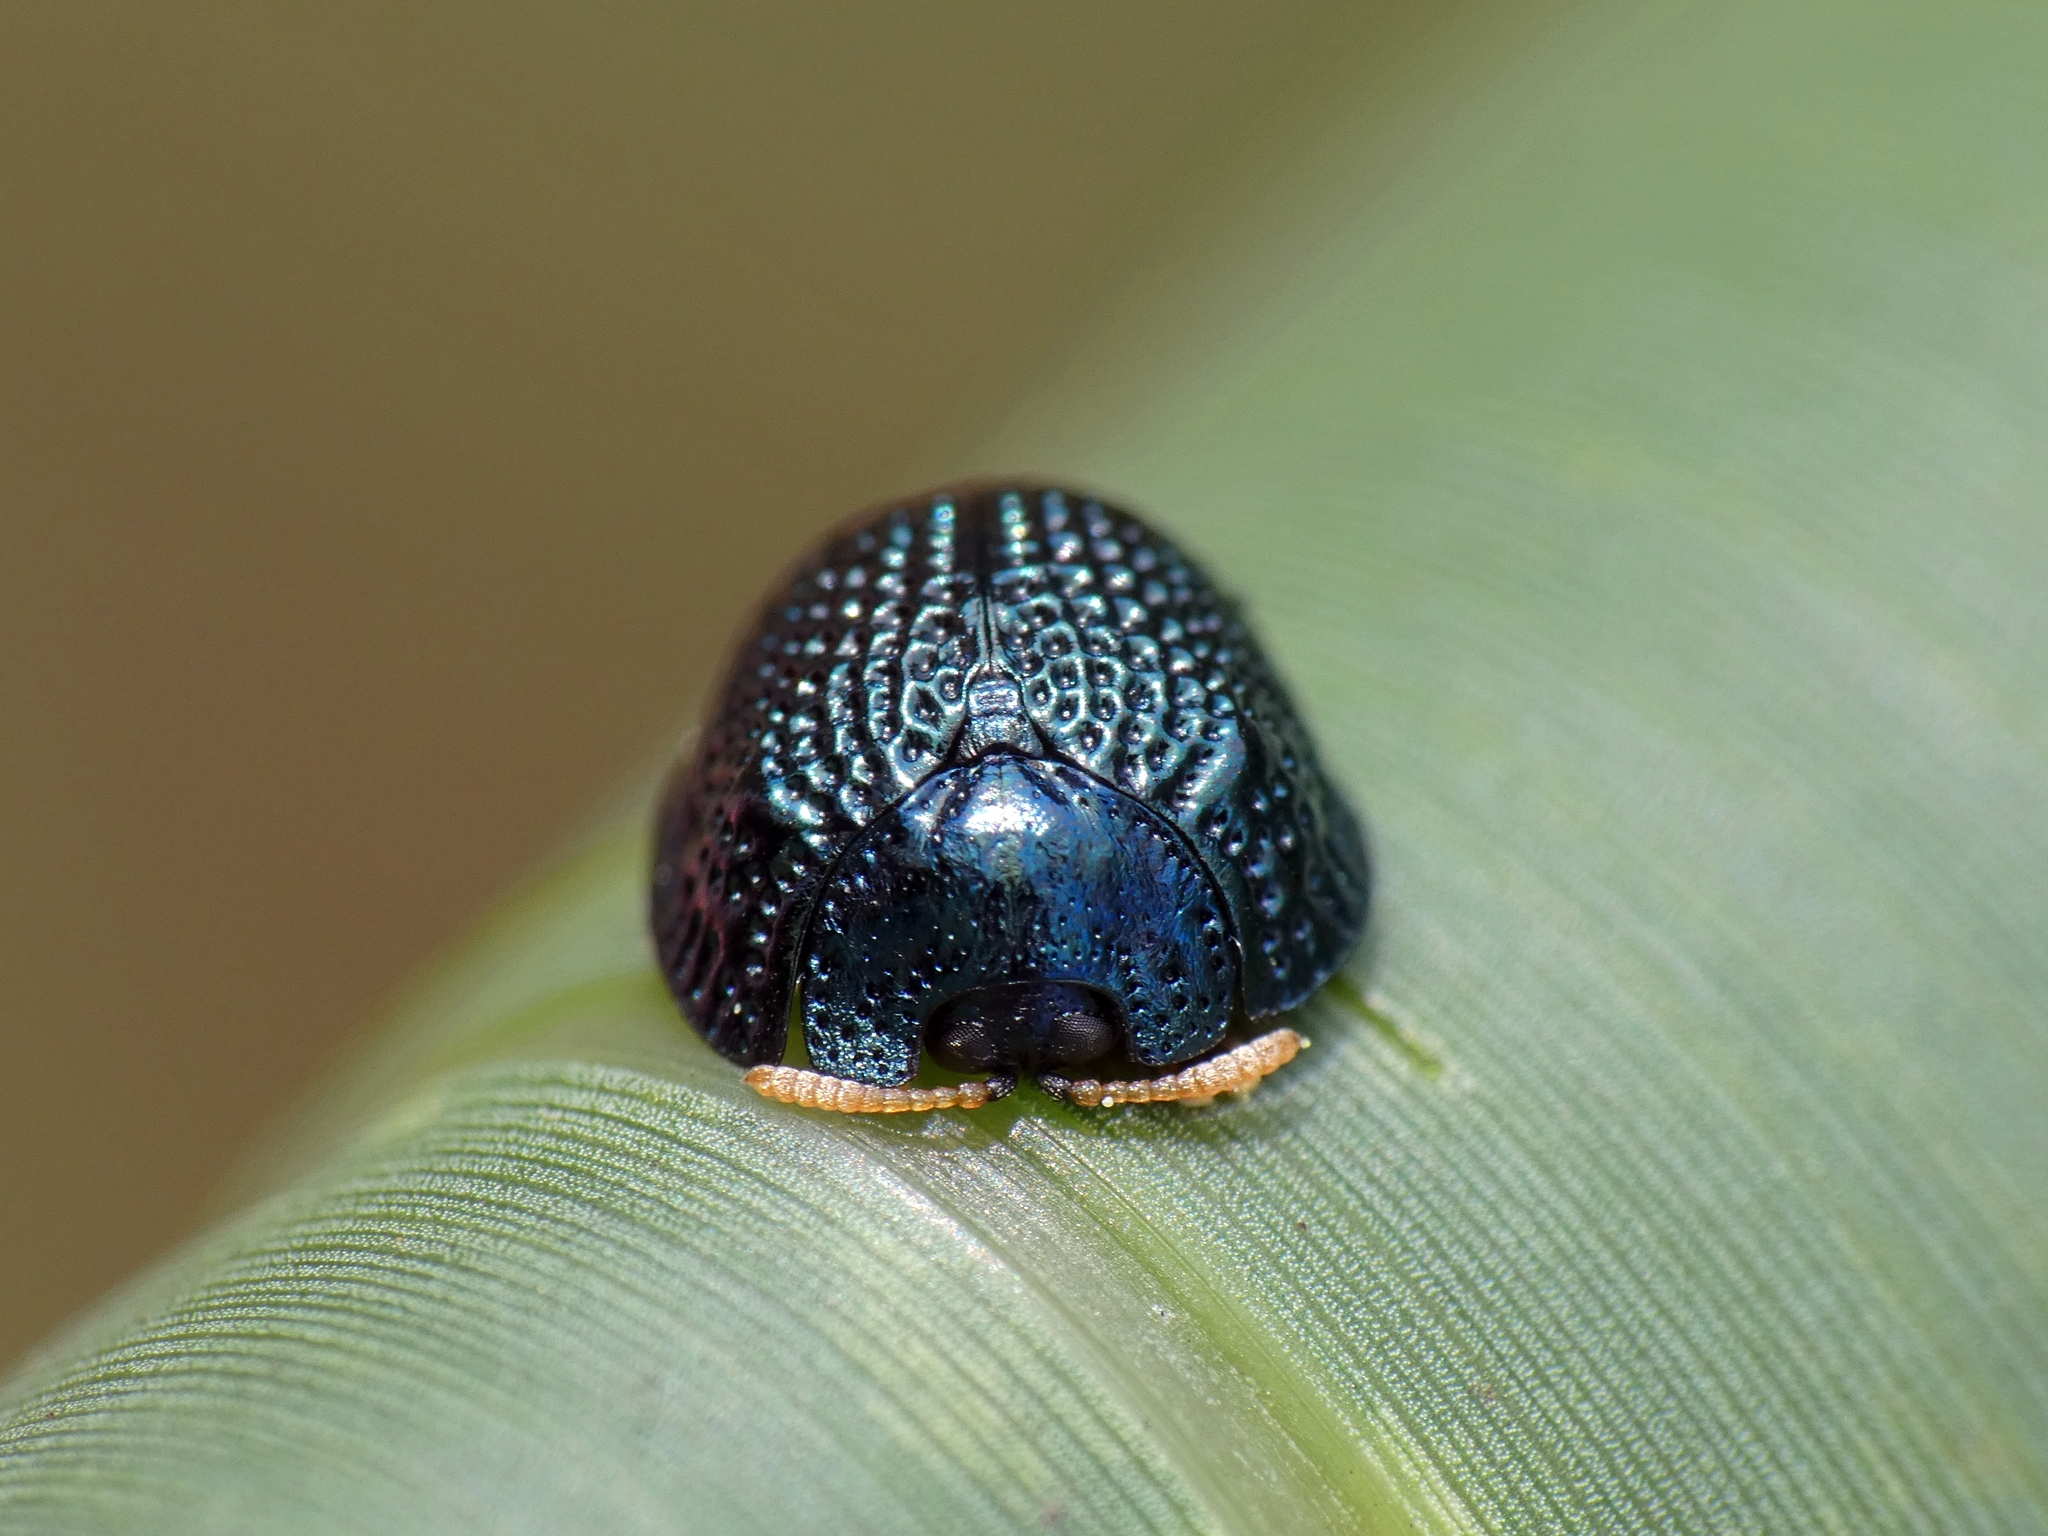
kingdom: Animalia
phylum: Arthropoda
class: Insecta
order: Coleoptera
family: Chrysomelidae
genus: Hemisphaerota
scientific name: Hemisphaerota cyanea
